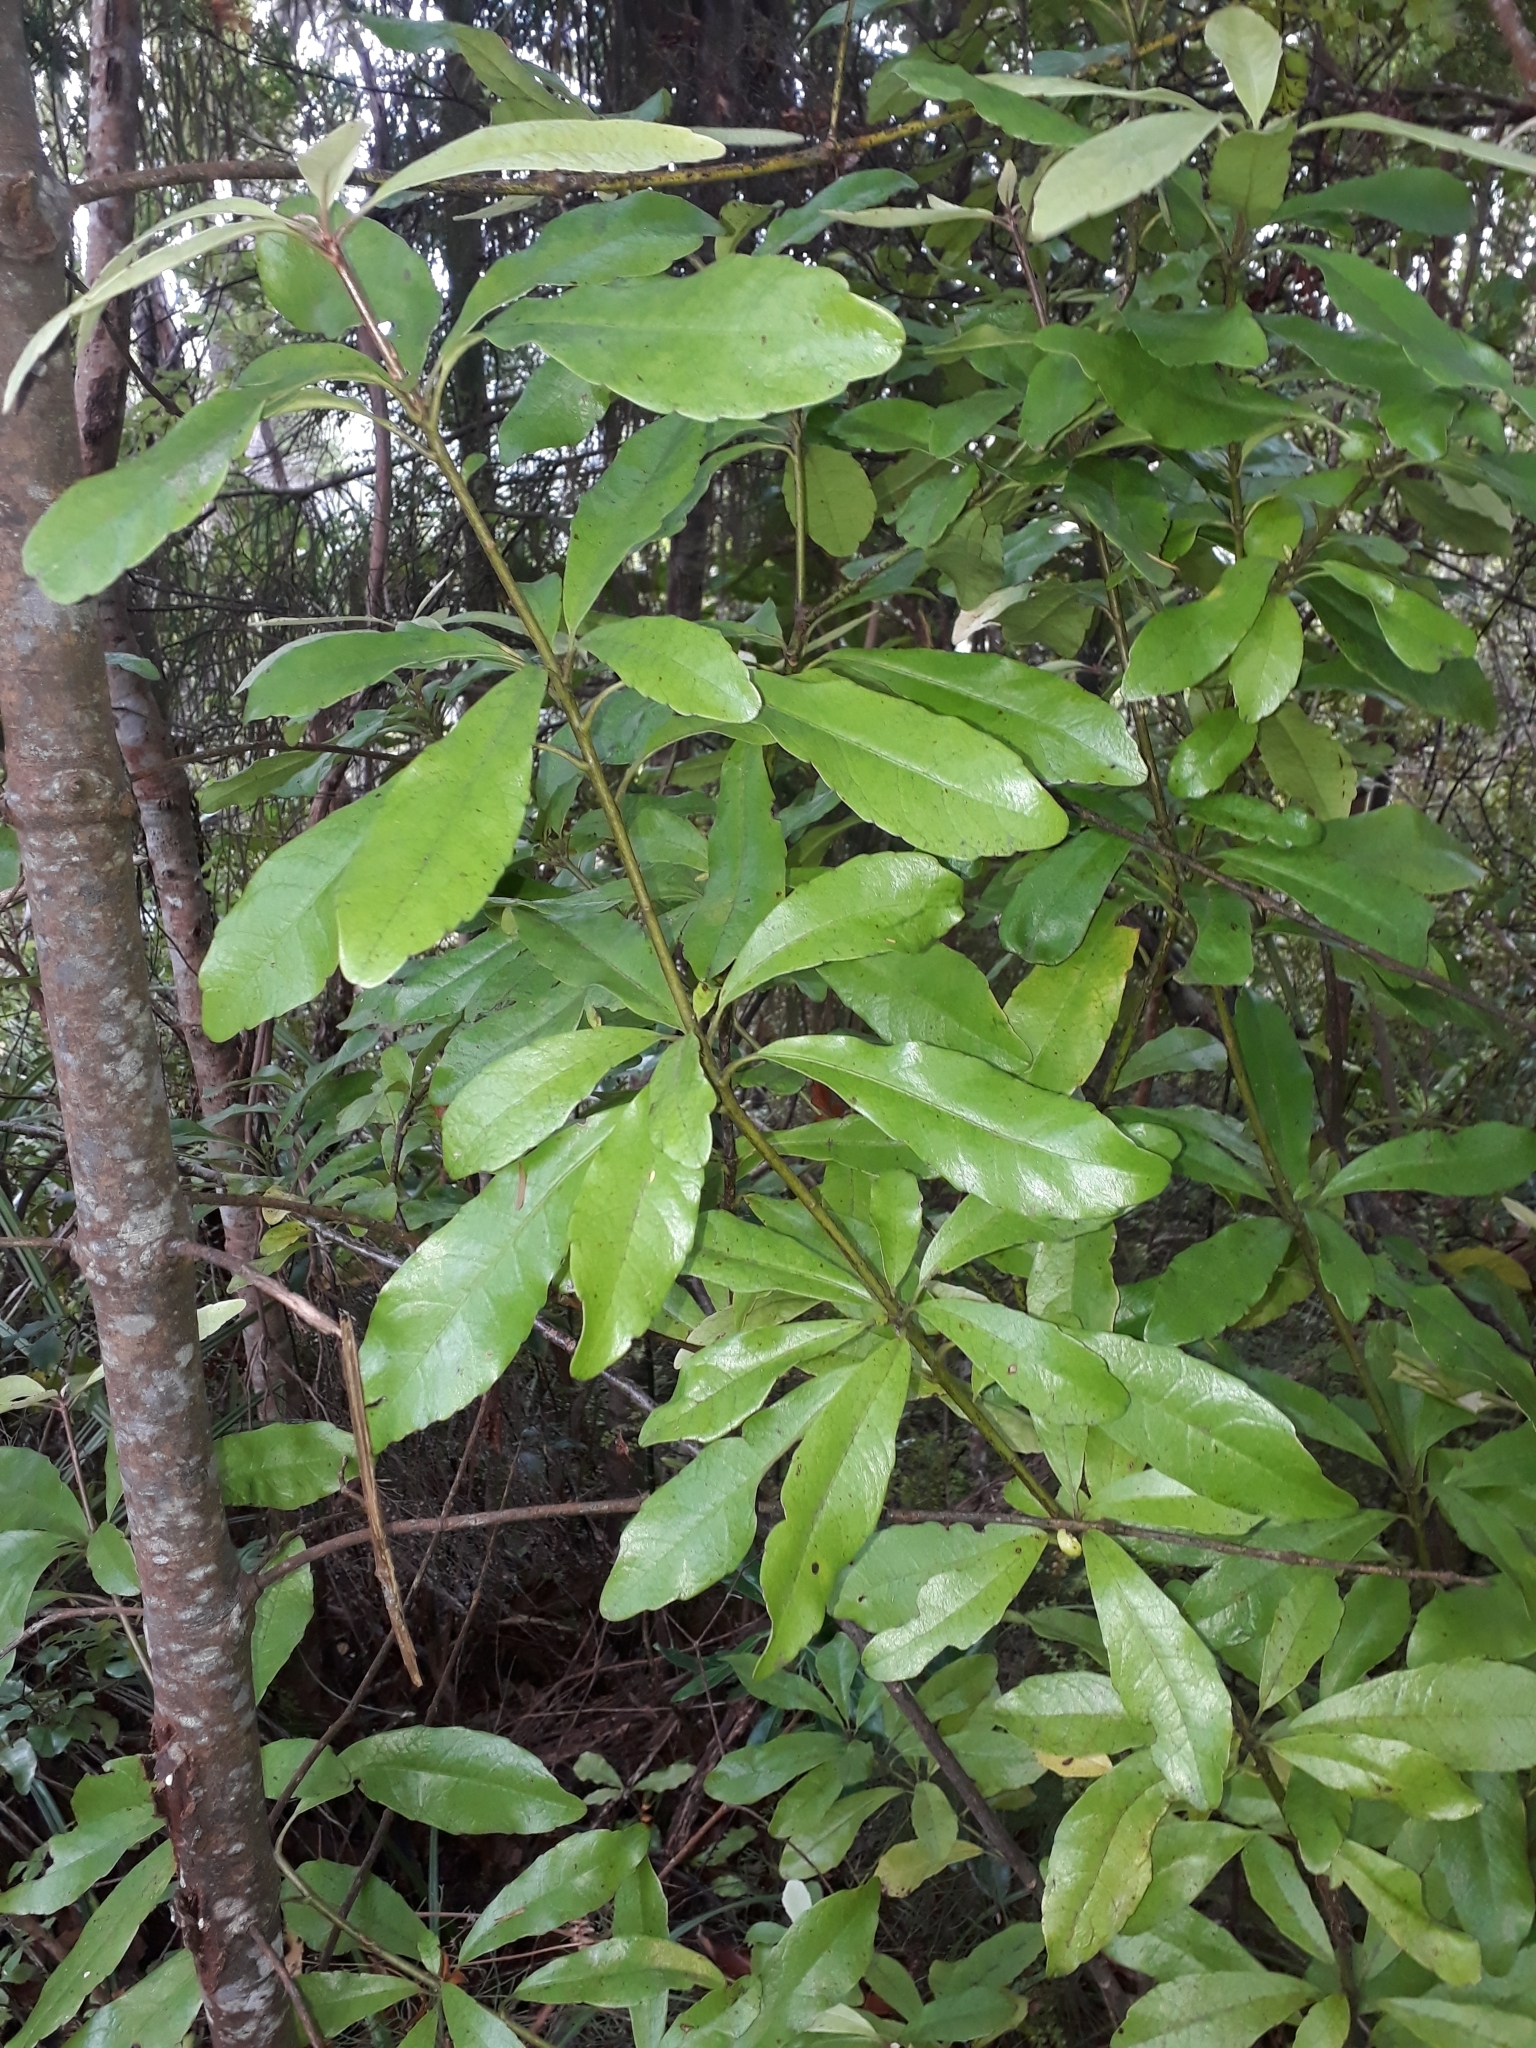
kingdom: Plantae
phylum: Tracheophyta
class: Magnoliopsida
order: Asterales
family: Alseuosmiaceae
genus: Alseuosmia
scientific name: Alseuosmia macrophylla
